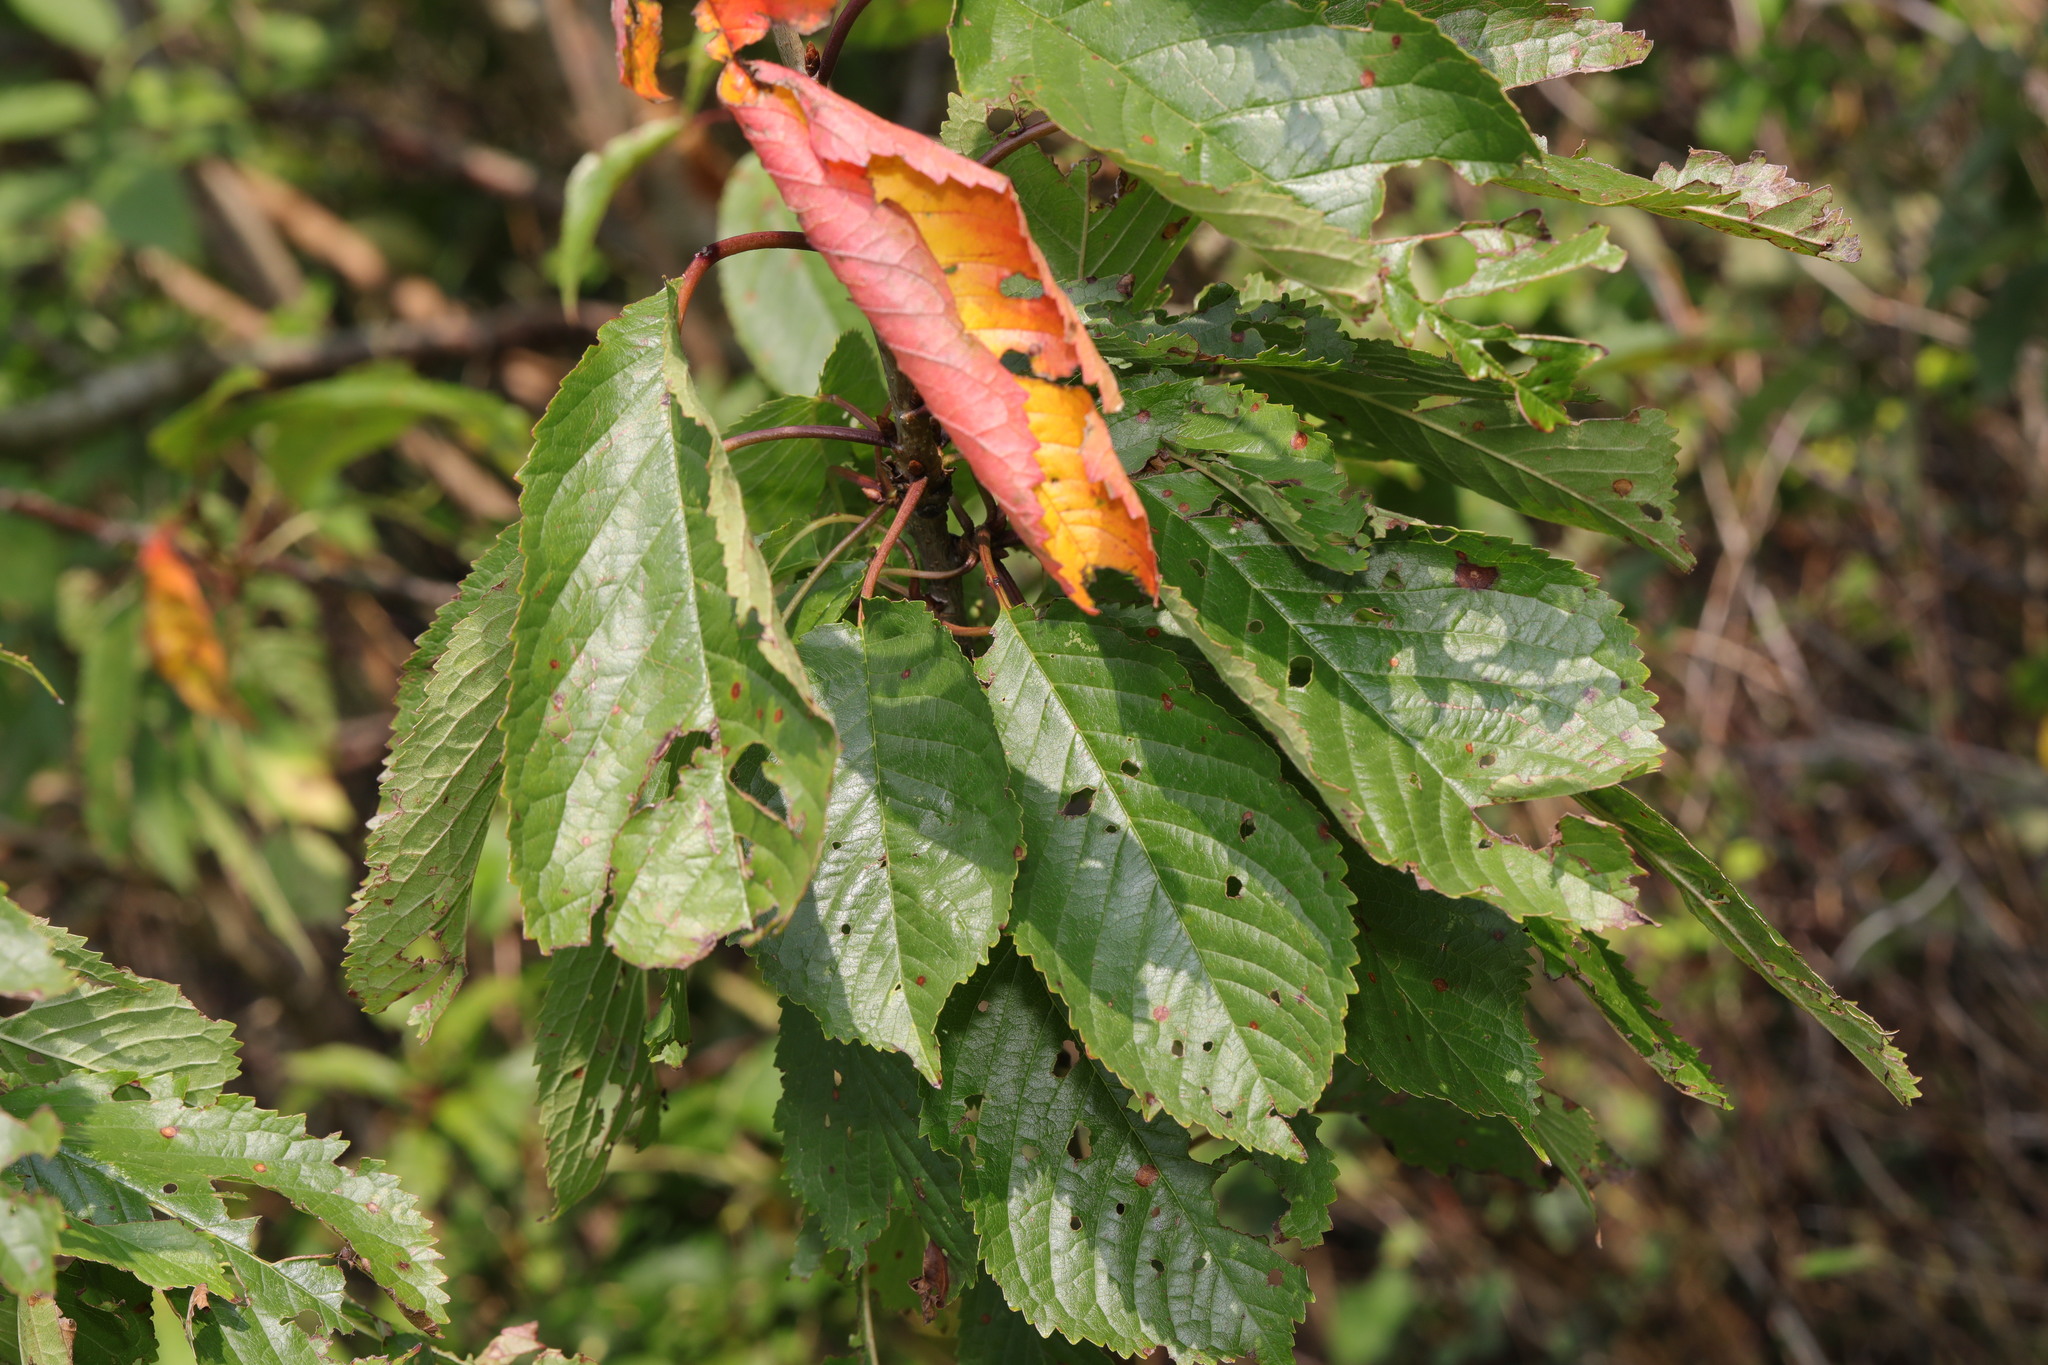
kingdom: Plantae
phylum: Tracheophyta
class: Magnoliopsida
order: Rosales
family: Rosaceae
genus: Prunus
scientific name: Prunus avium
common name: Sweet cherry
